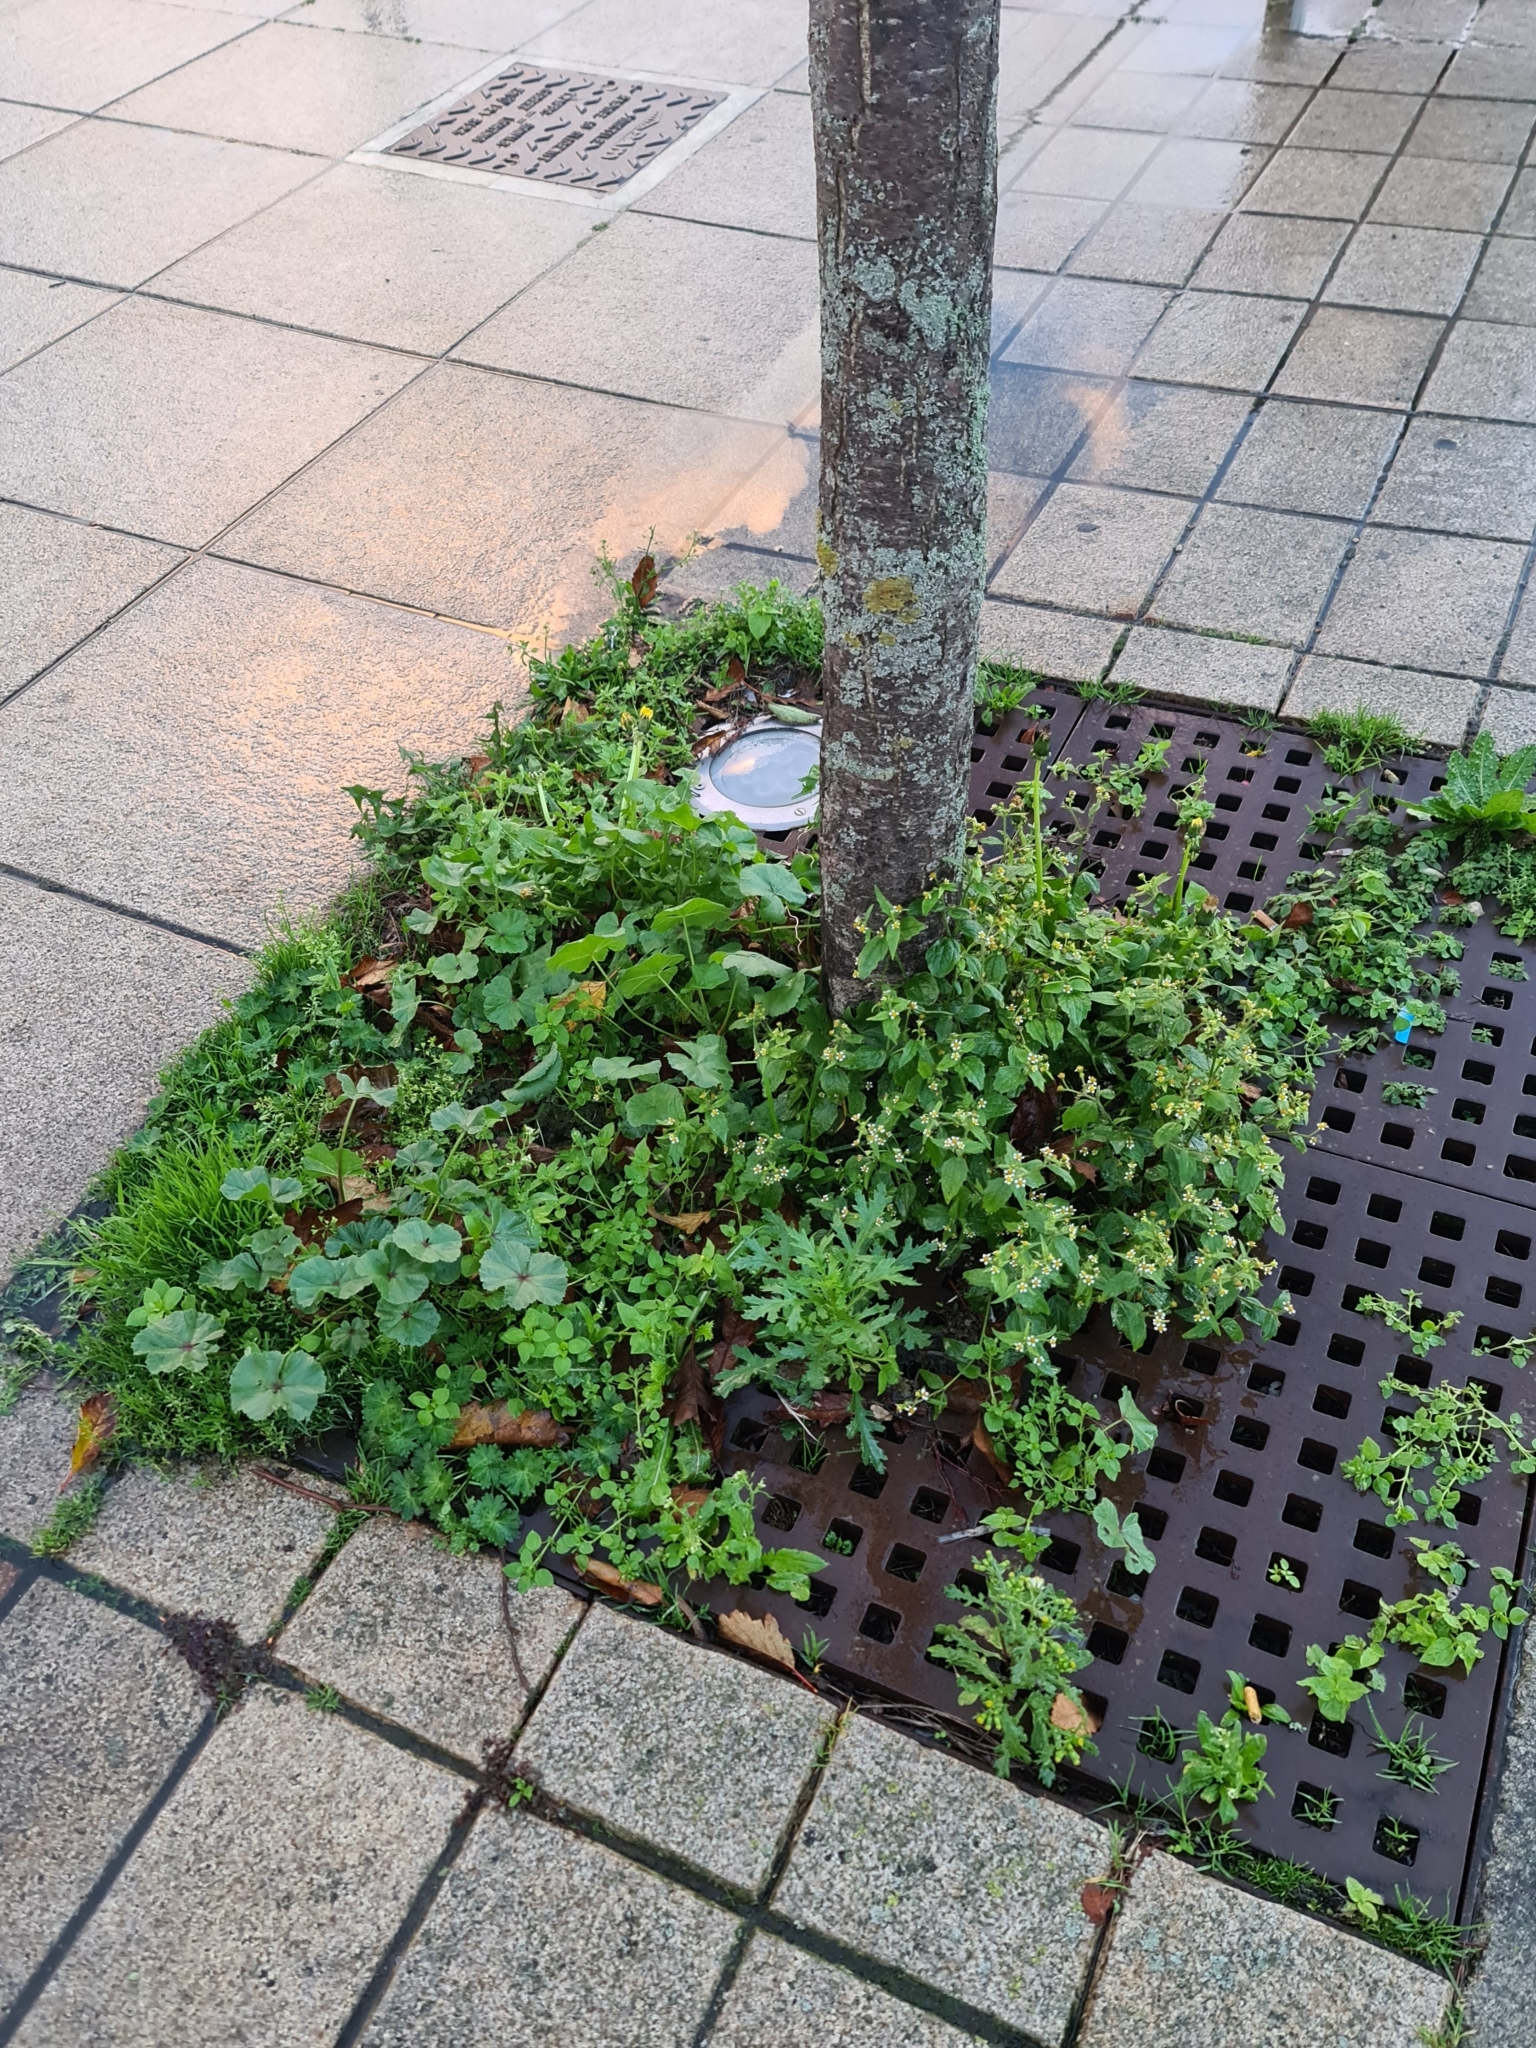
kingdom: Plantae
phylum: Tracheophyta
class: Magnoliopsida
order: Asterales
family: Asteraceae
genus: Galinsoga
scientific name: Galinsoga quadriradiata
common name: Shaggy soldier
